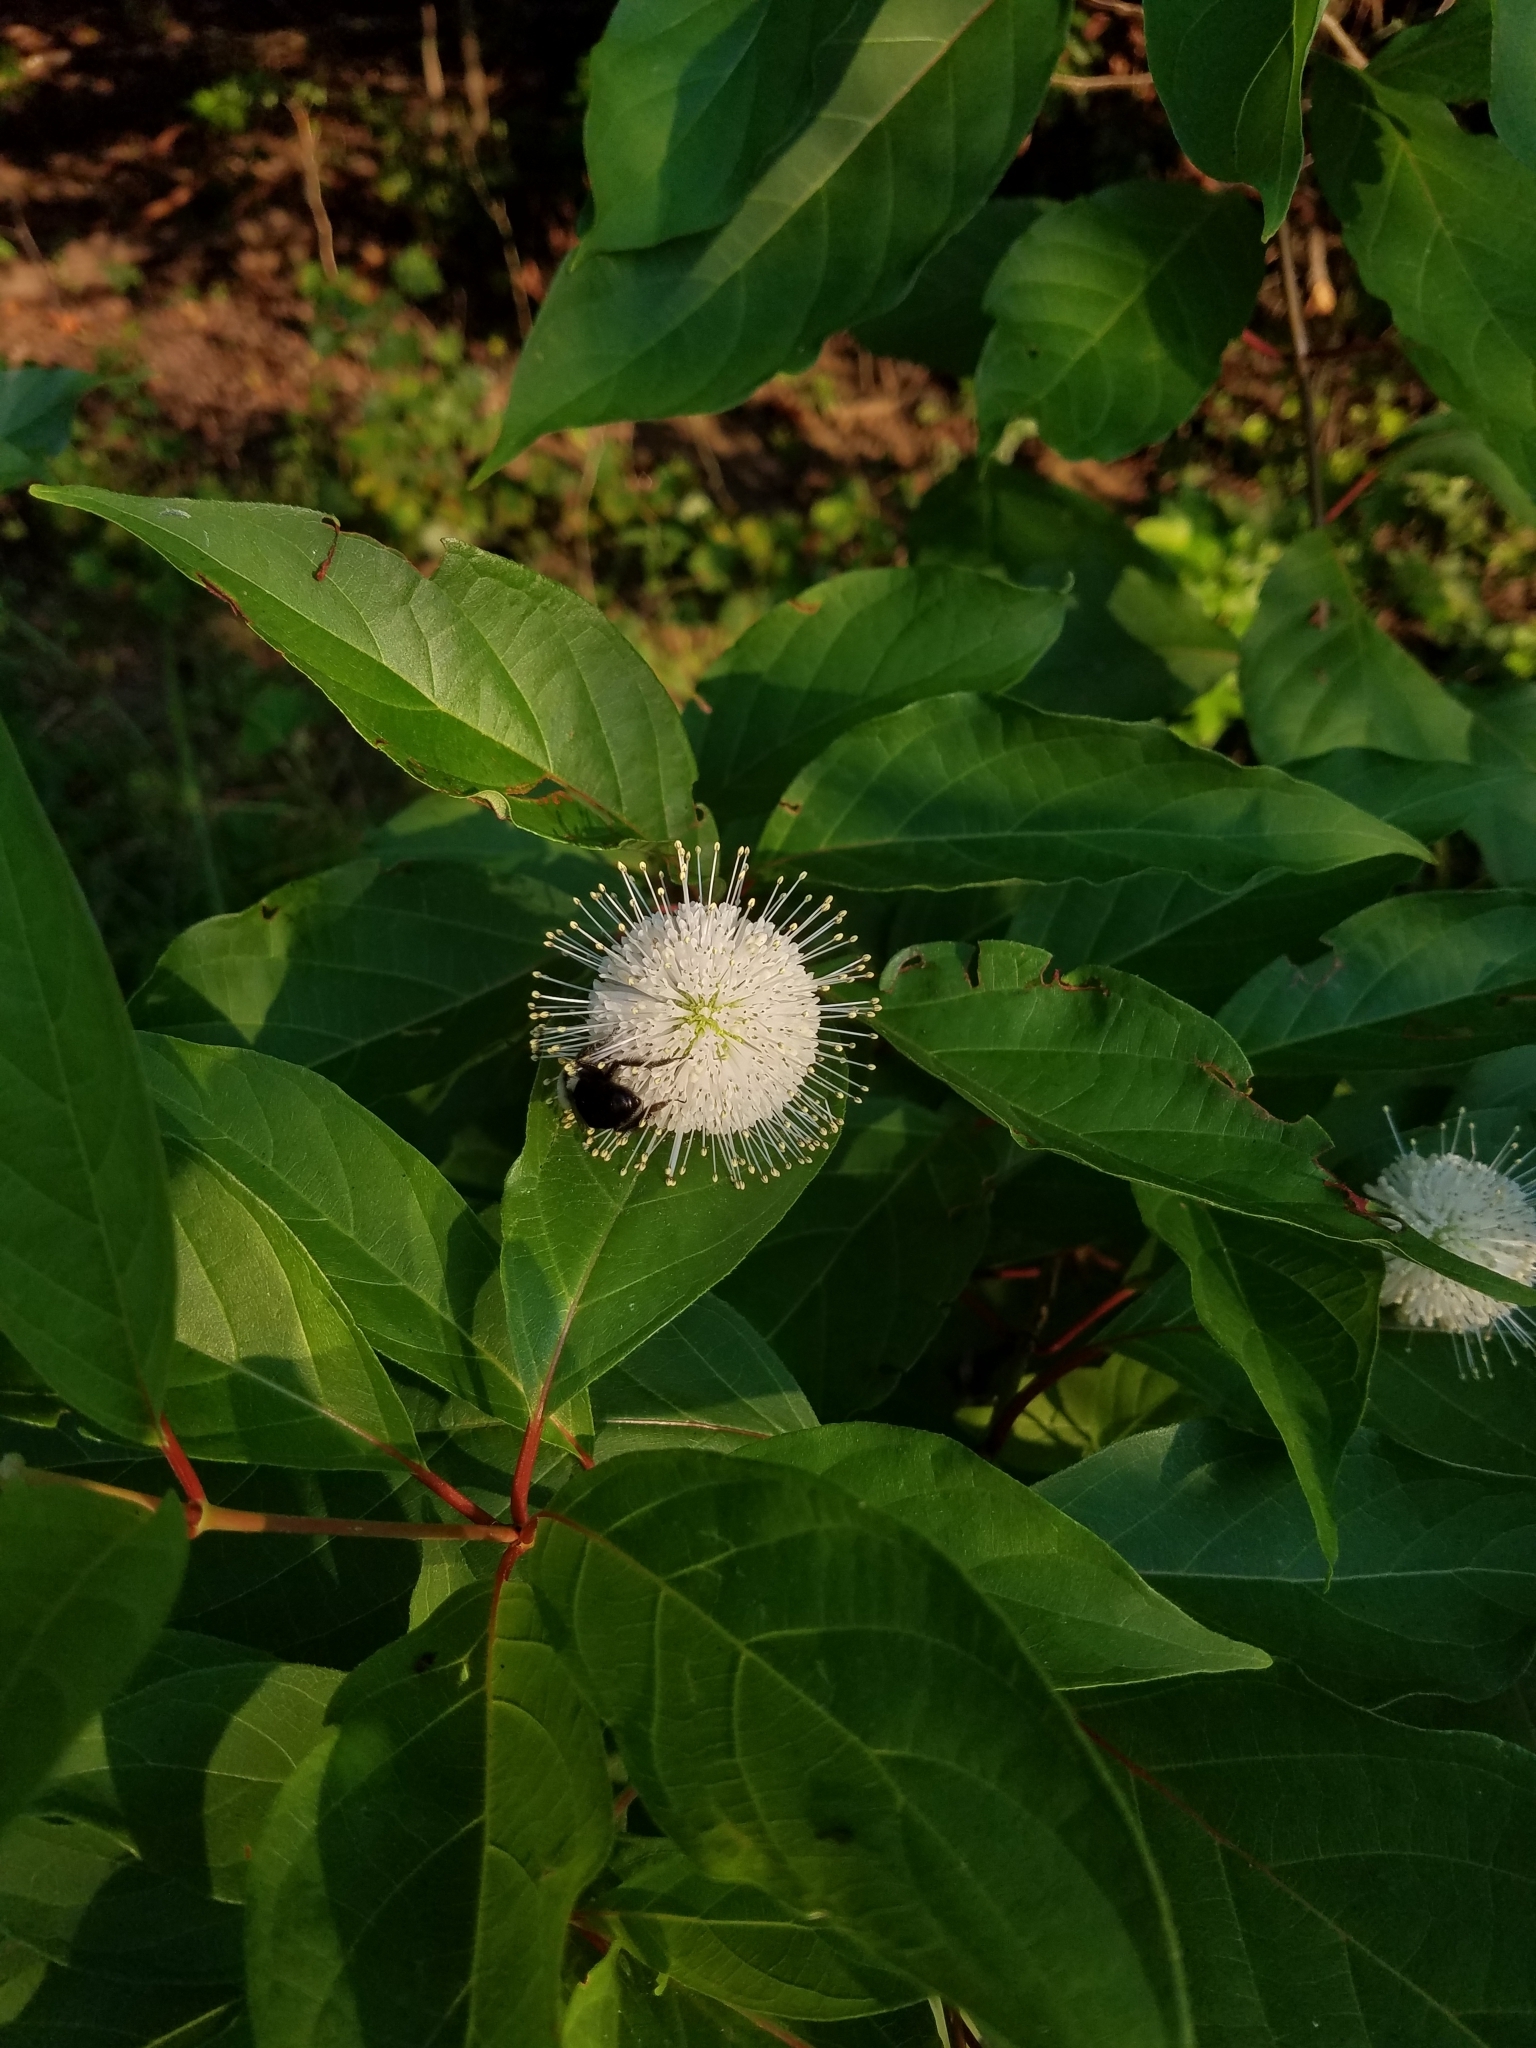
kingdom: Plantae
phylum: Tracheophyta
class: Magnoliopsida
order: Gentianales
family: Rubiaceae
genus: Cephalanthus
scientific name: Cephalanthus occidentalis
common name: Button-willow
